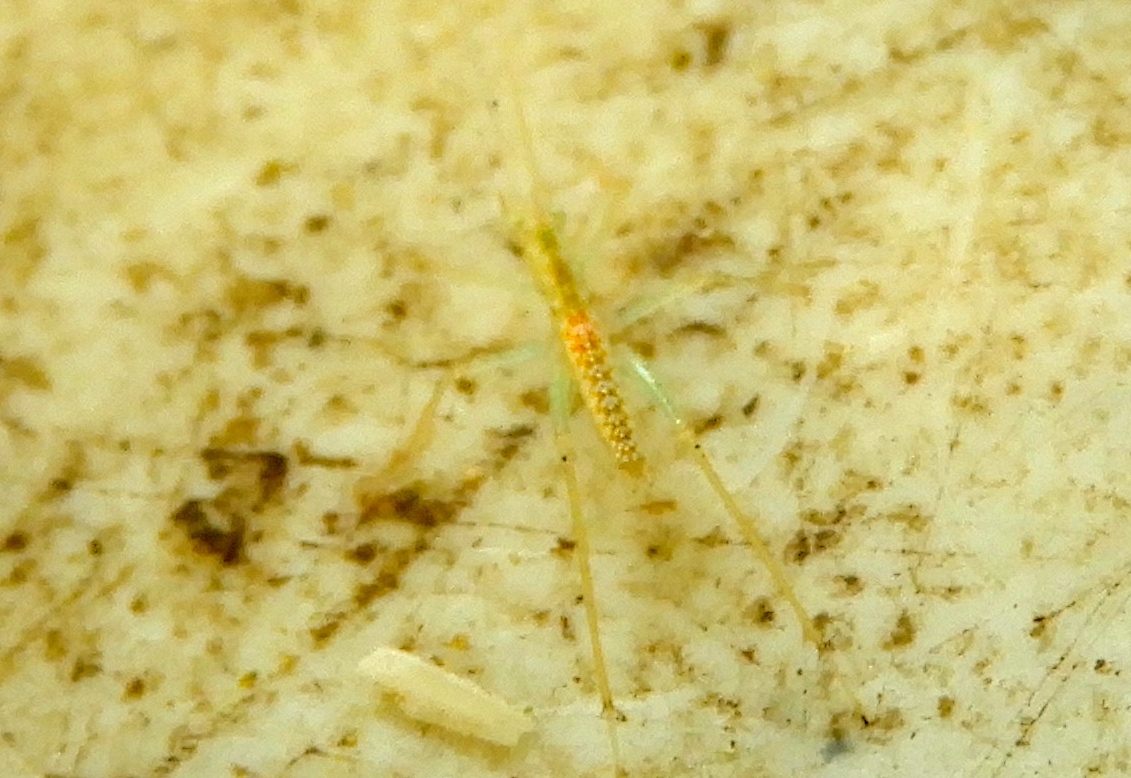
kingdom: Animalia
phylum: Arthropoda
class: Insecta
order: Orthoptera
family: Gryllidae
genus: Oecanthus
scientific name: Oecanthus
